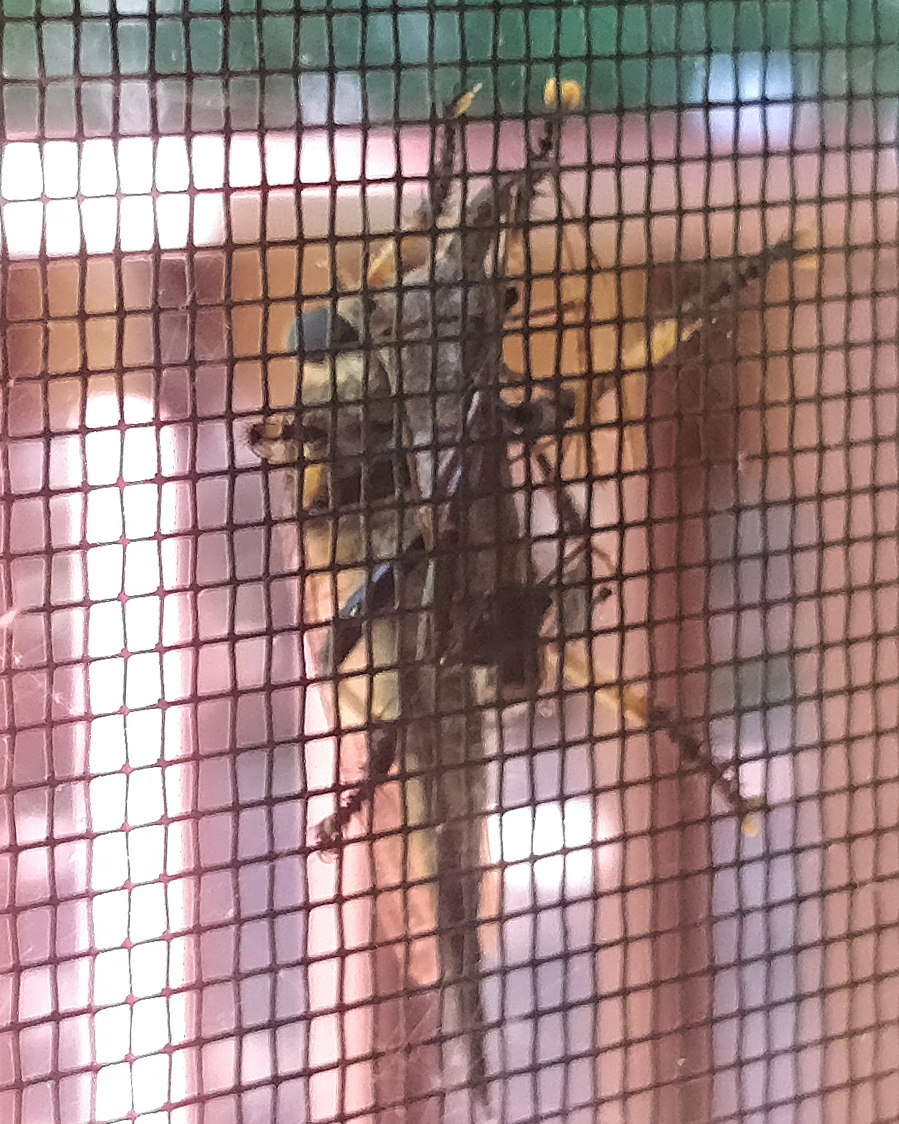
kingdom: Animalia
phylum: Arthropoda
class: Insecta
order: Diptera
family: Asilidae
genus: Promachus
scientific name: Promachus rufipes
